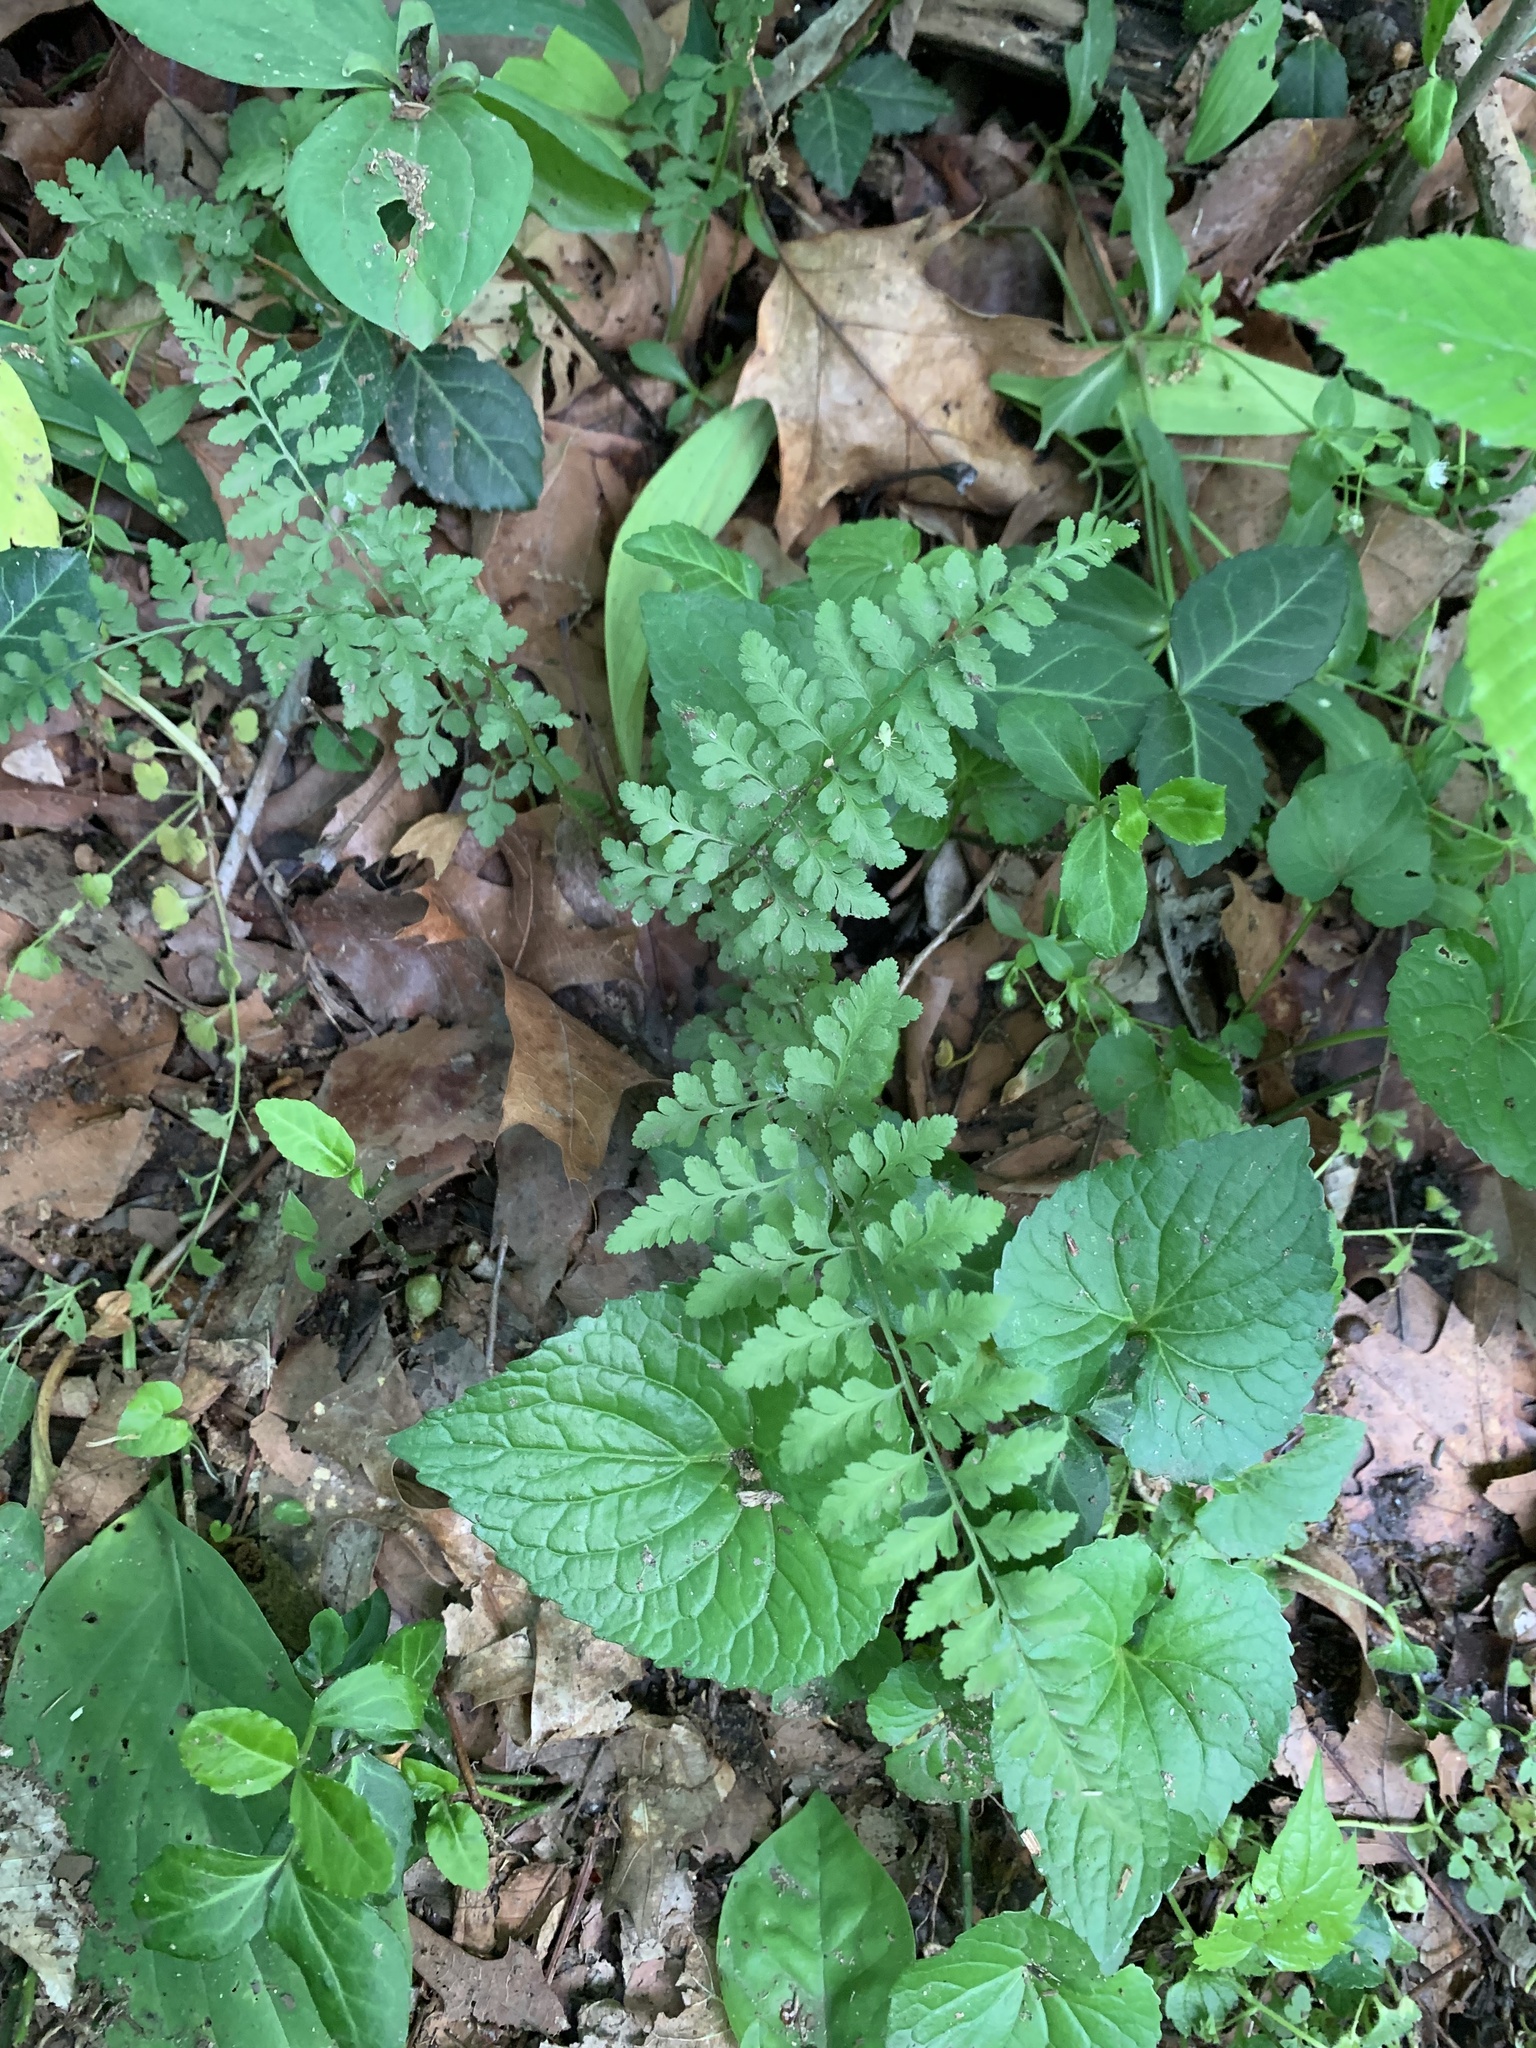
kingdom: Plantae
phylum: Tracheophyta
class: Polypodiopsida
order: Polypodiales
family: Cystopteridaceae
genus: Cystopteris
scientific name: Cystopteris protrusa
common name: Lowland brittle fern
